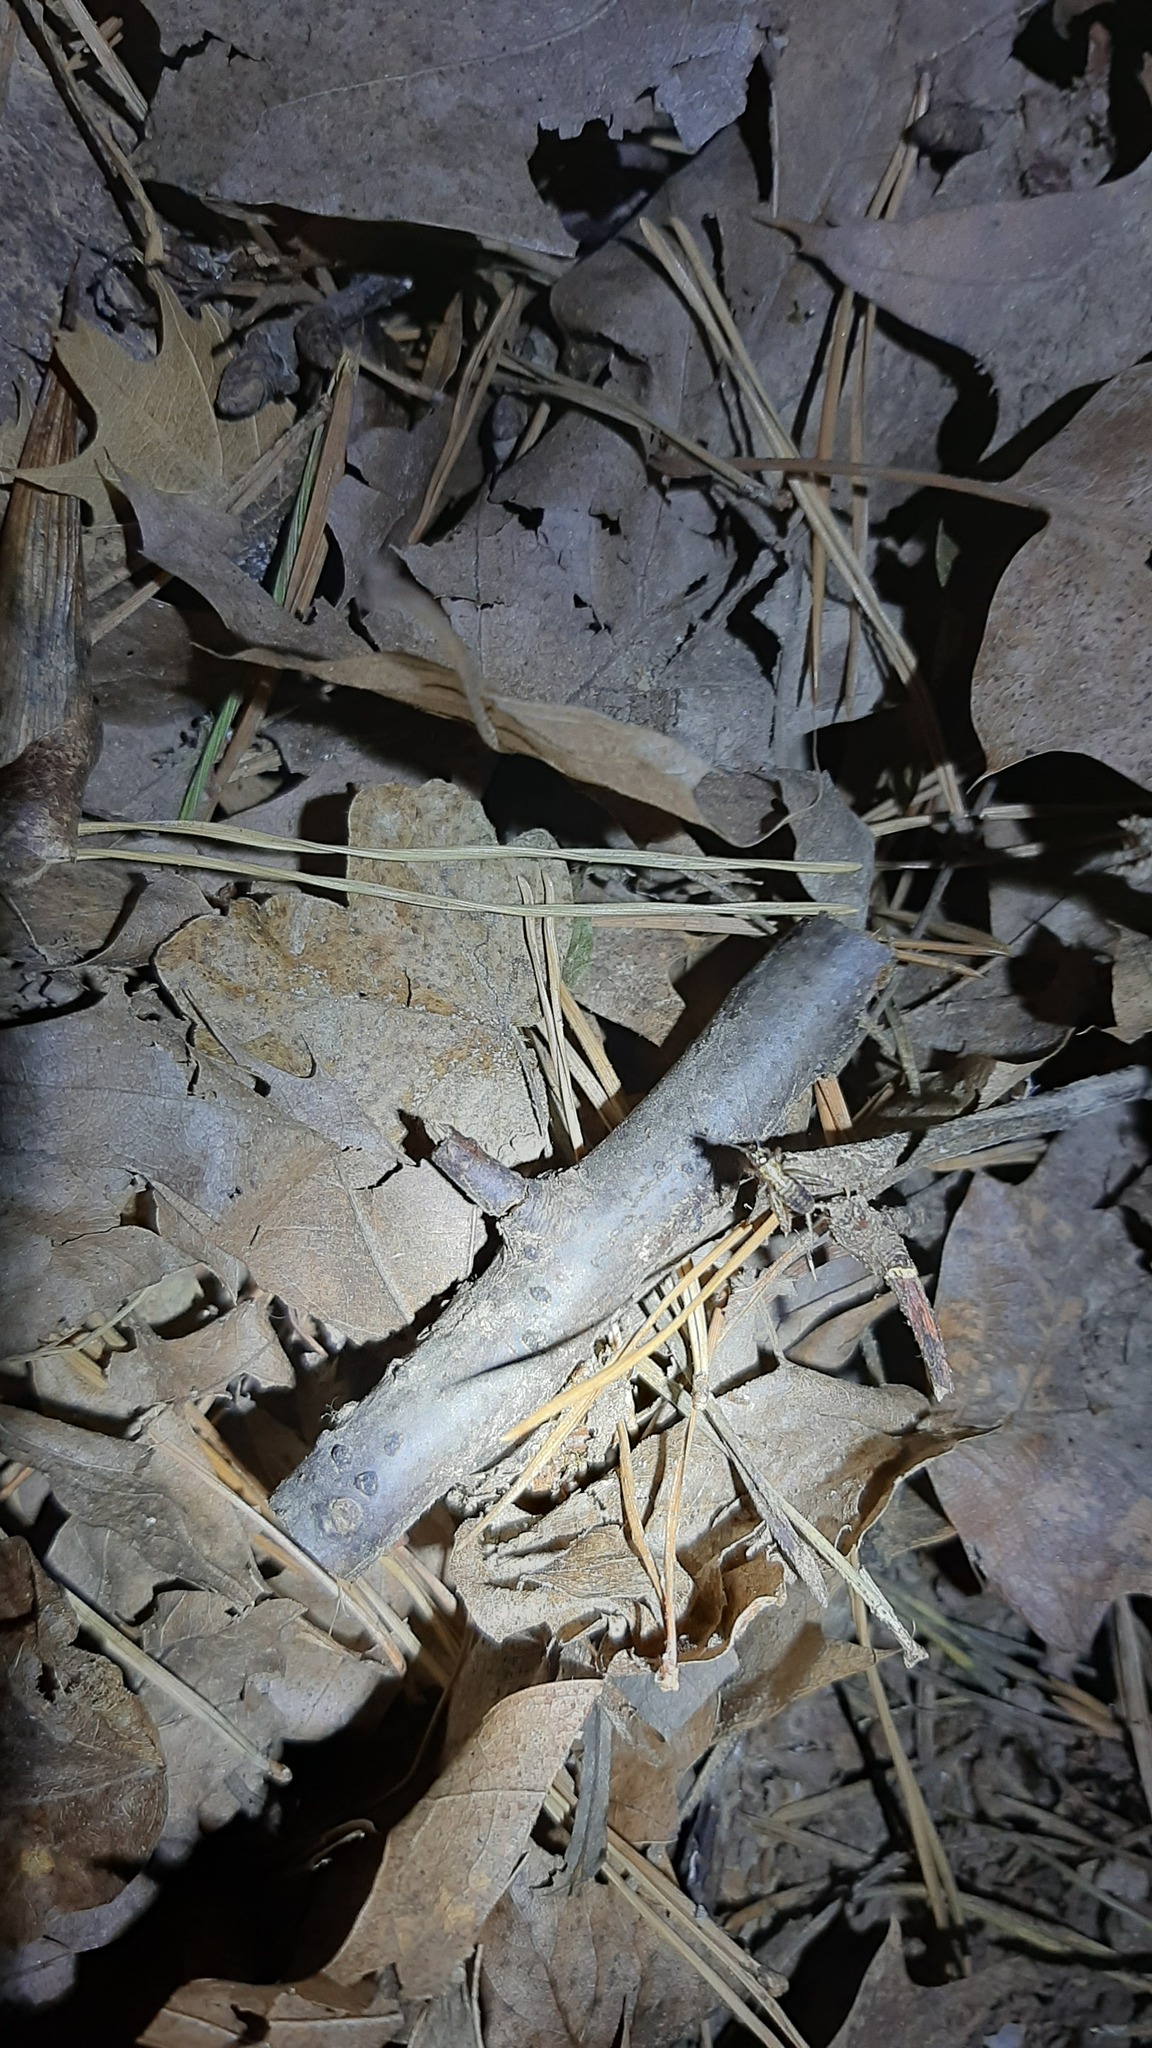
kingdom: Animalia
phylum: Arthropoda
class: Insecta
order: Orthoptera
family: Trigonidiidae
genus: Nemobius
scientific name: Nemobius sylvestris
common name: Wood-cricket
